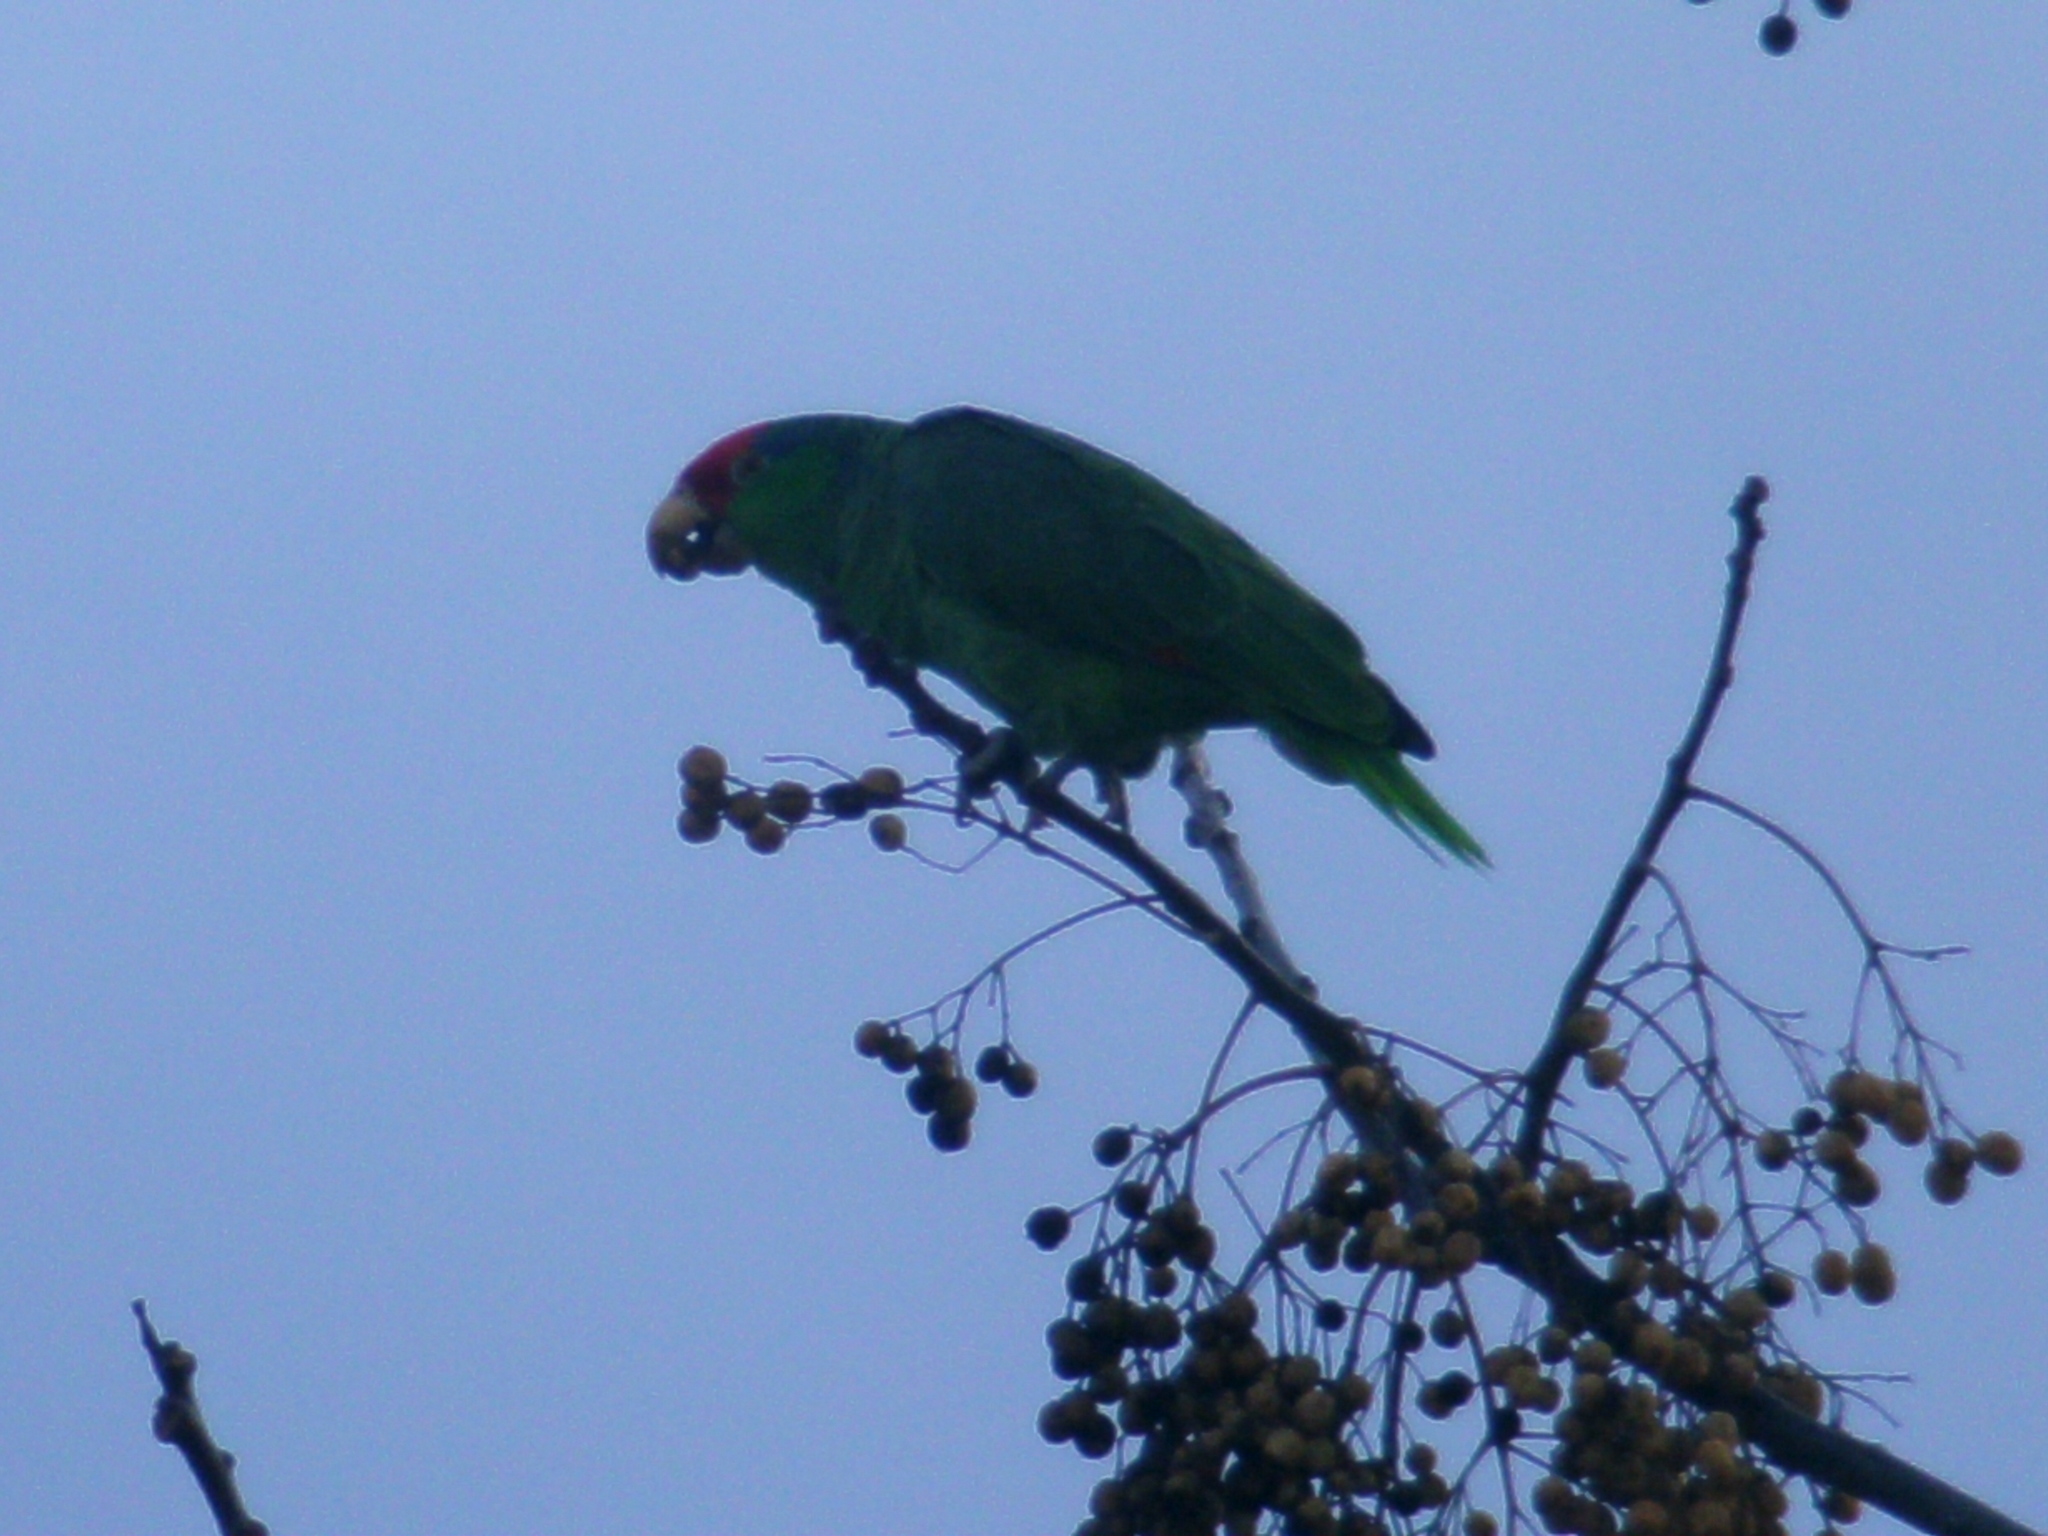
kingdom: Animalia
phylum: Chordata
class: Aves
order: Psittaciformes
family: Psittacidae
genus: Amazona
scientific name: Amazona viridigenalis
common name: Red-crowned amazon
